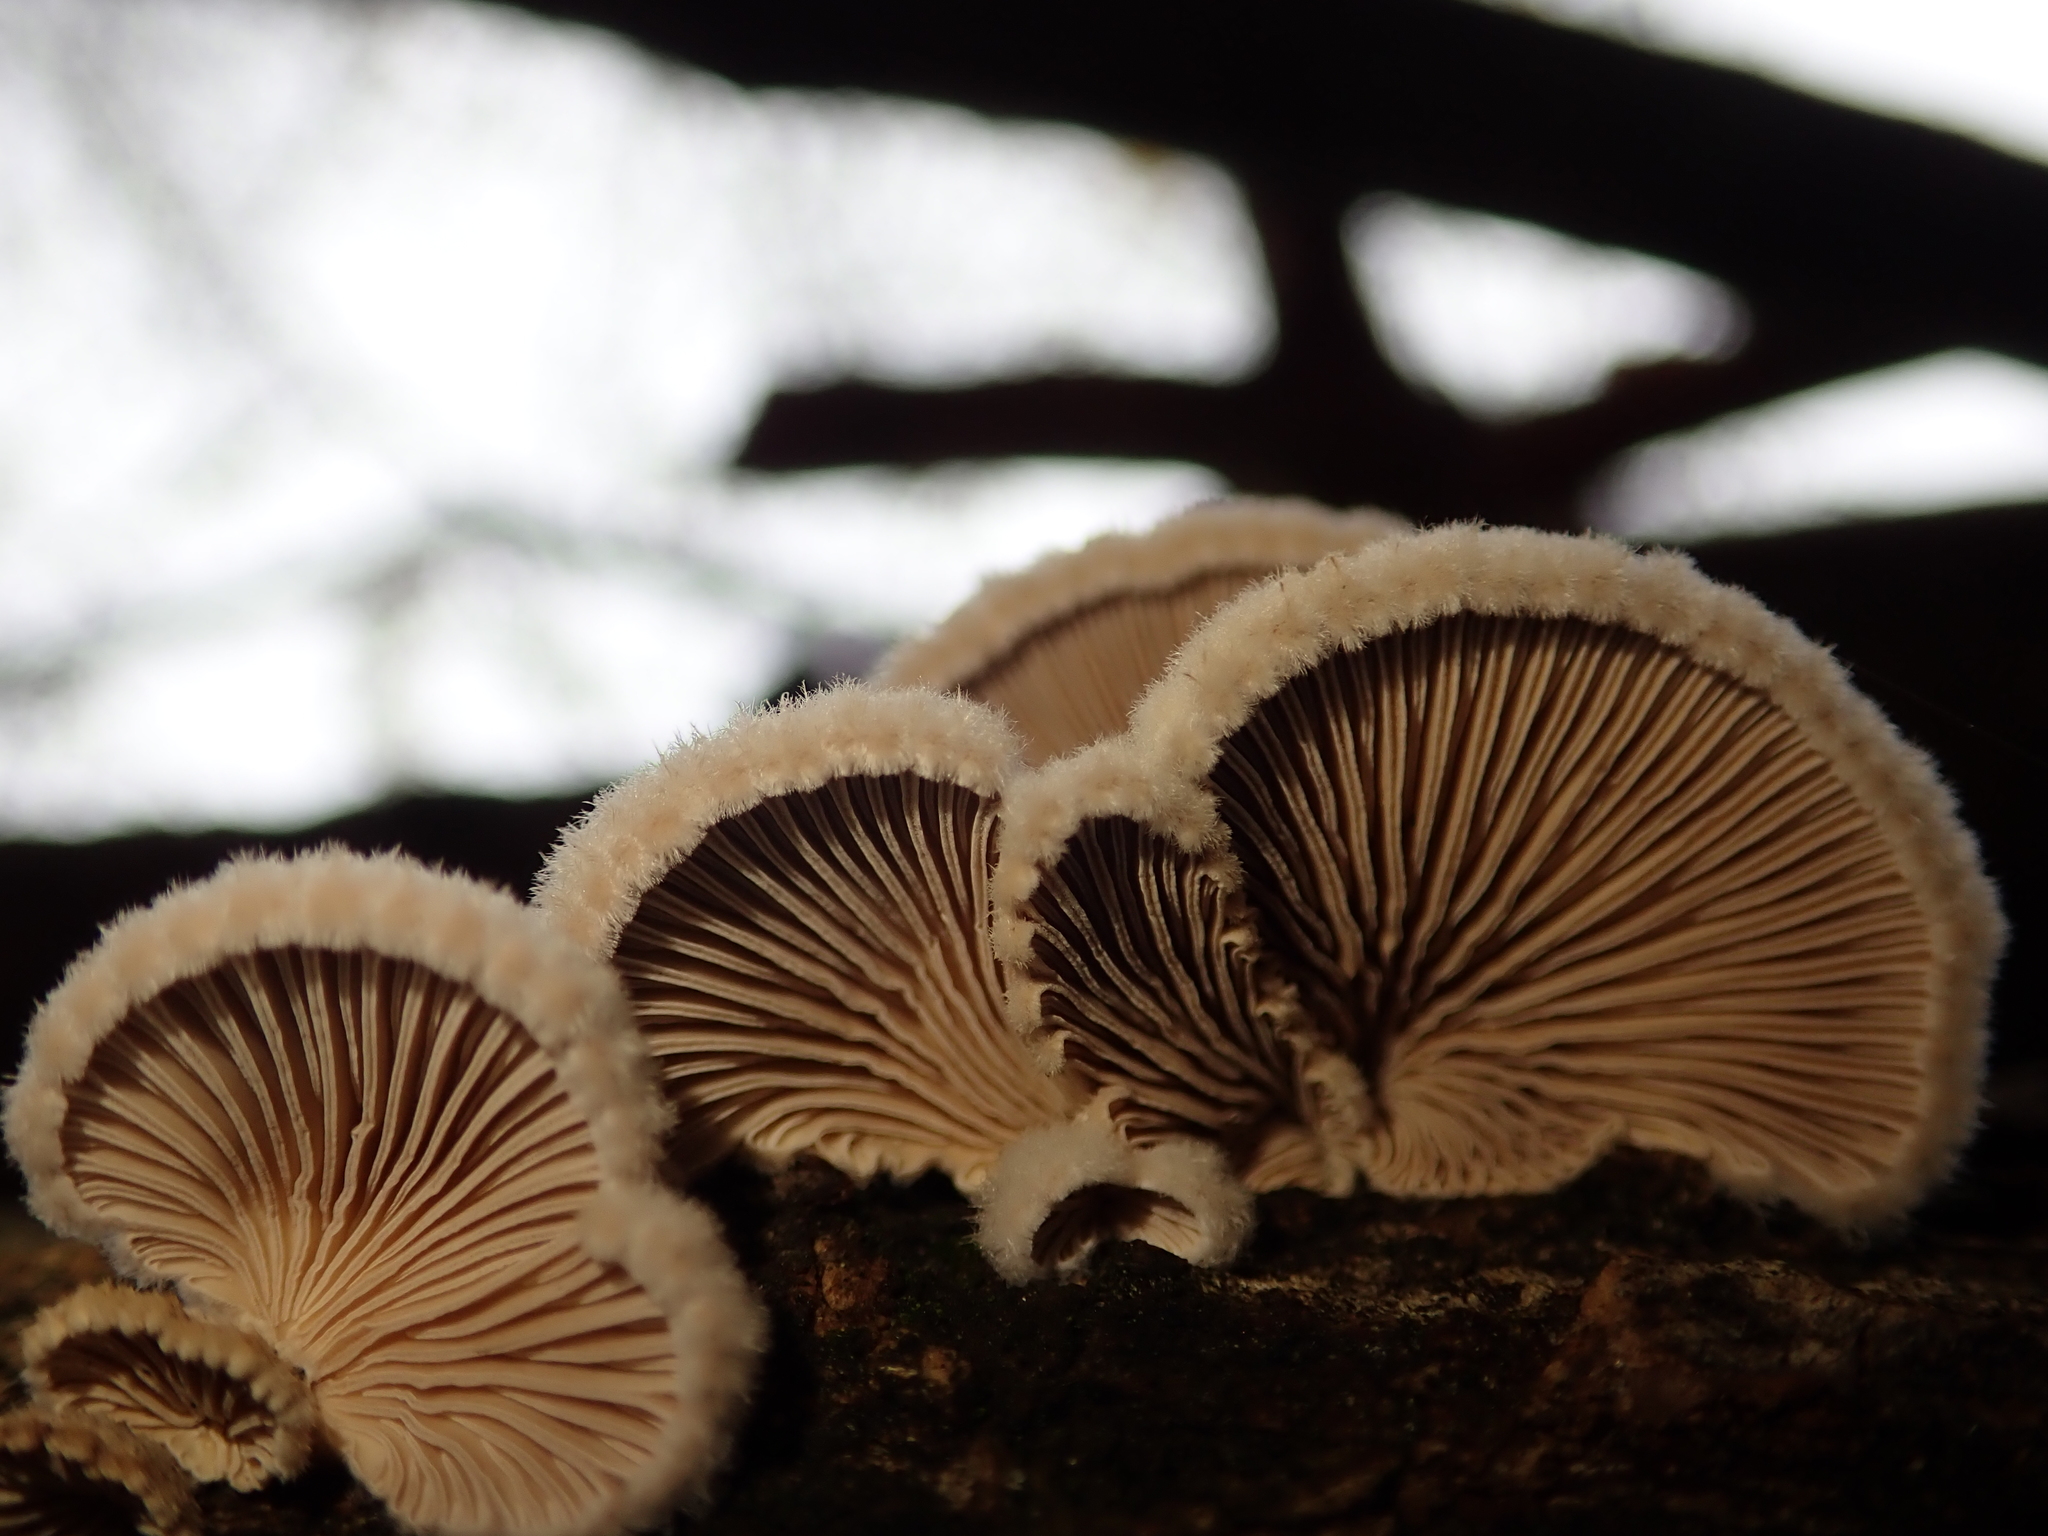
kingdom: Fungi
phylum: Basidiomycota
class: Agaricomycetes
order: Agaricales
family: Schizophyllaceae
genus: Schizophyllum
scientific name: Schizophyllum commune
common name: Common porecrust
